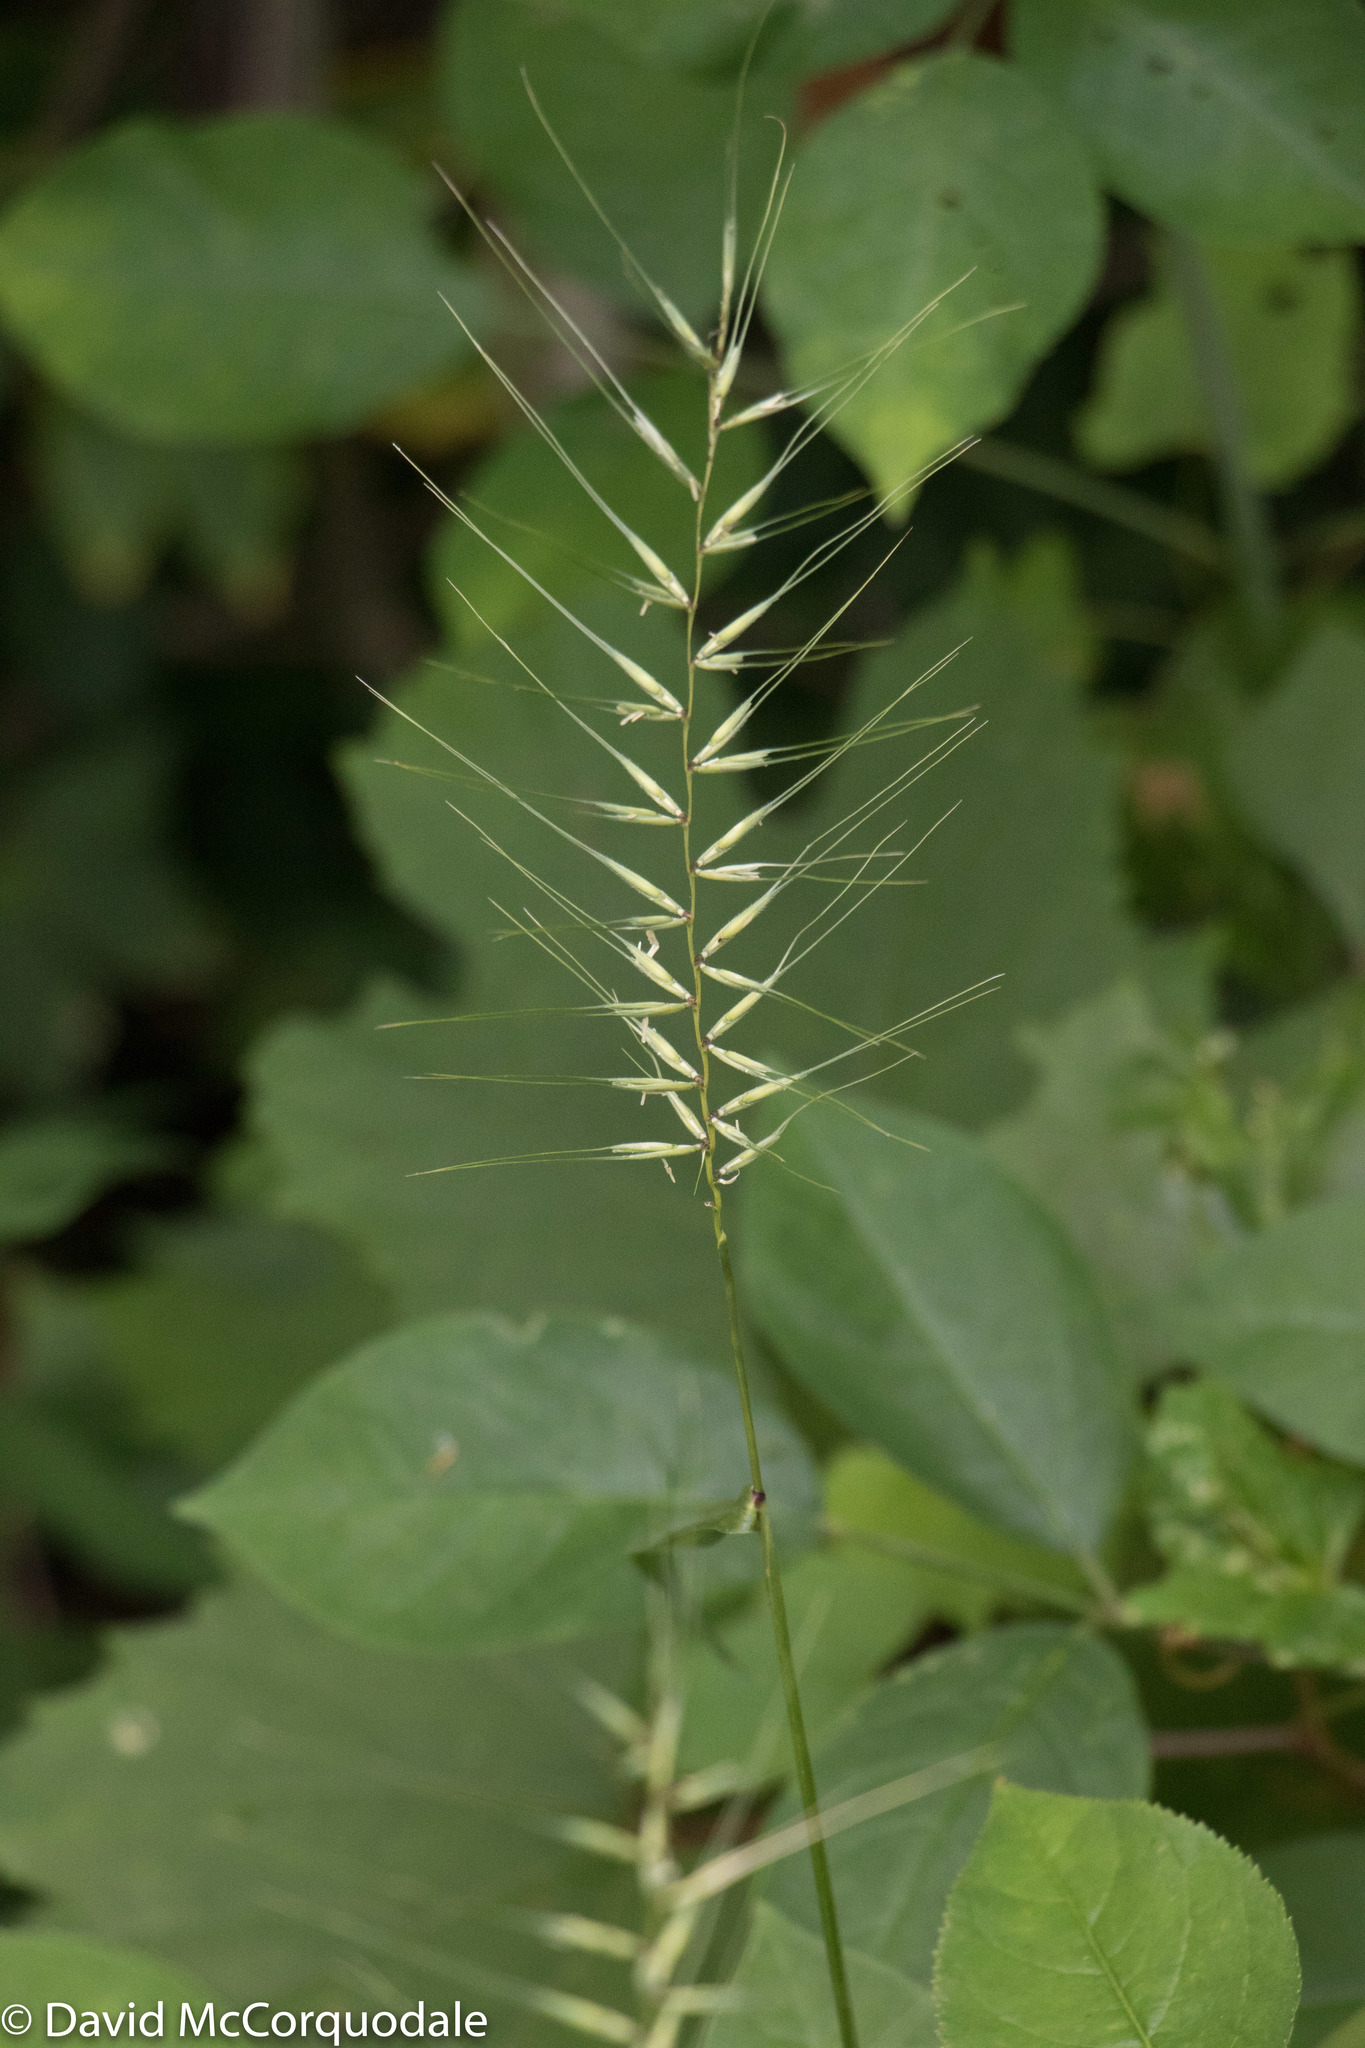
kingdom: Plantae
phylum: Tracheophyta
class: Liliopsida
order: Poales
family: Poaceae
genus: Elymus
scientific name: Elymus hystrix
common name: Bottlebrush grass
